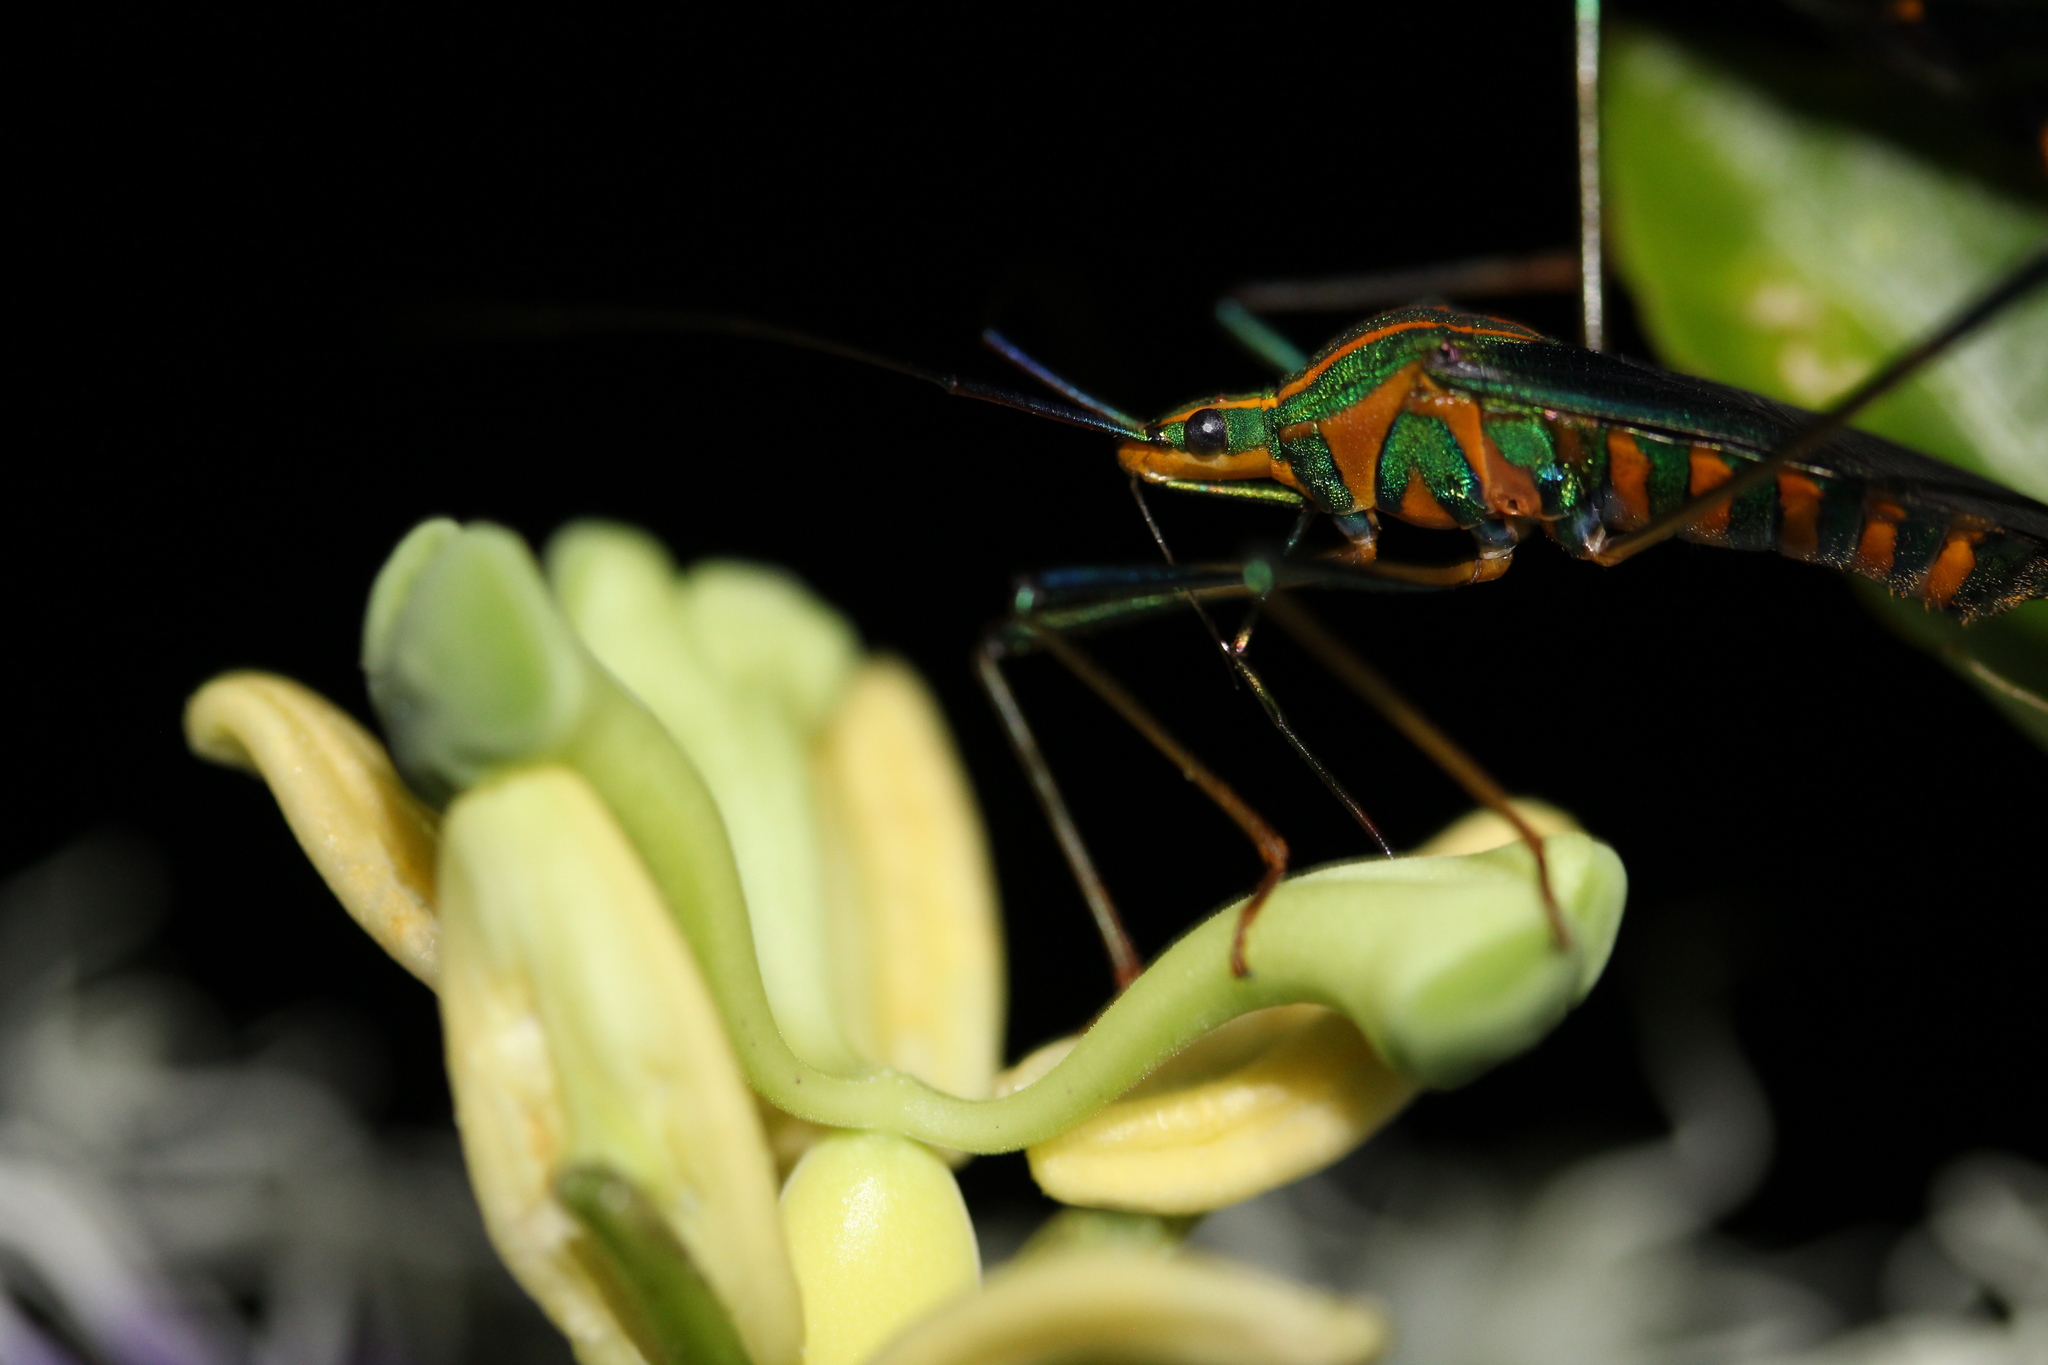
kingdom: Animalia
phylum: Arthropoda
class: Insecta
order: Hemiptera
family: Coreidae
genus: Diactor
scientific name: Diactor bogotanus
